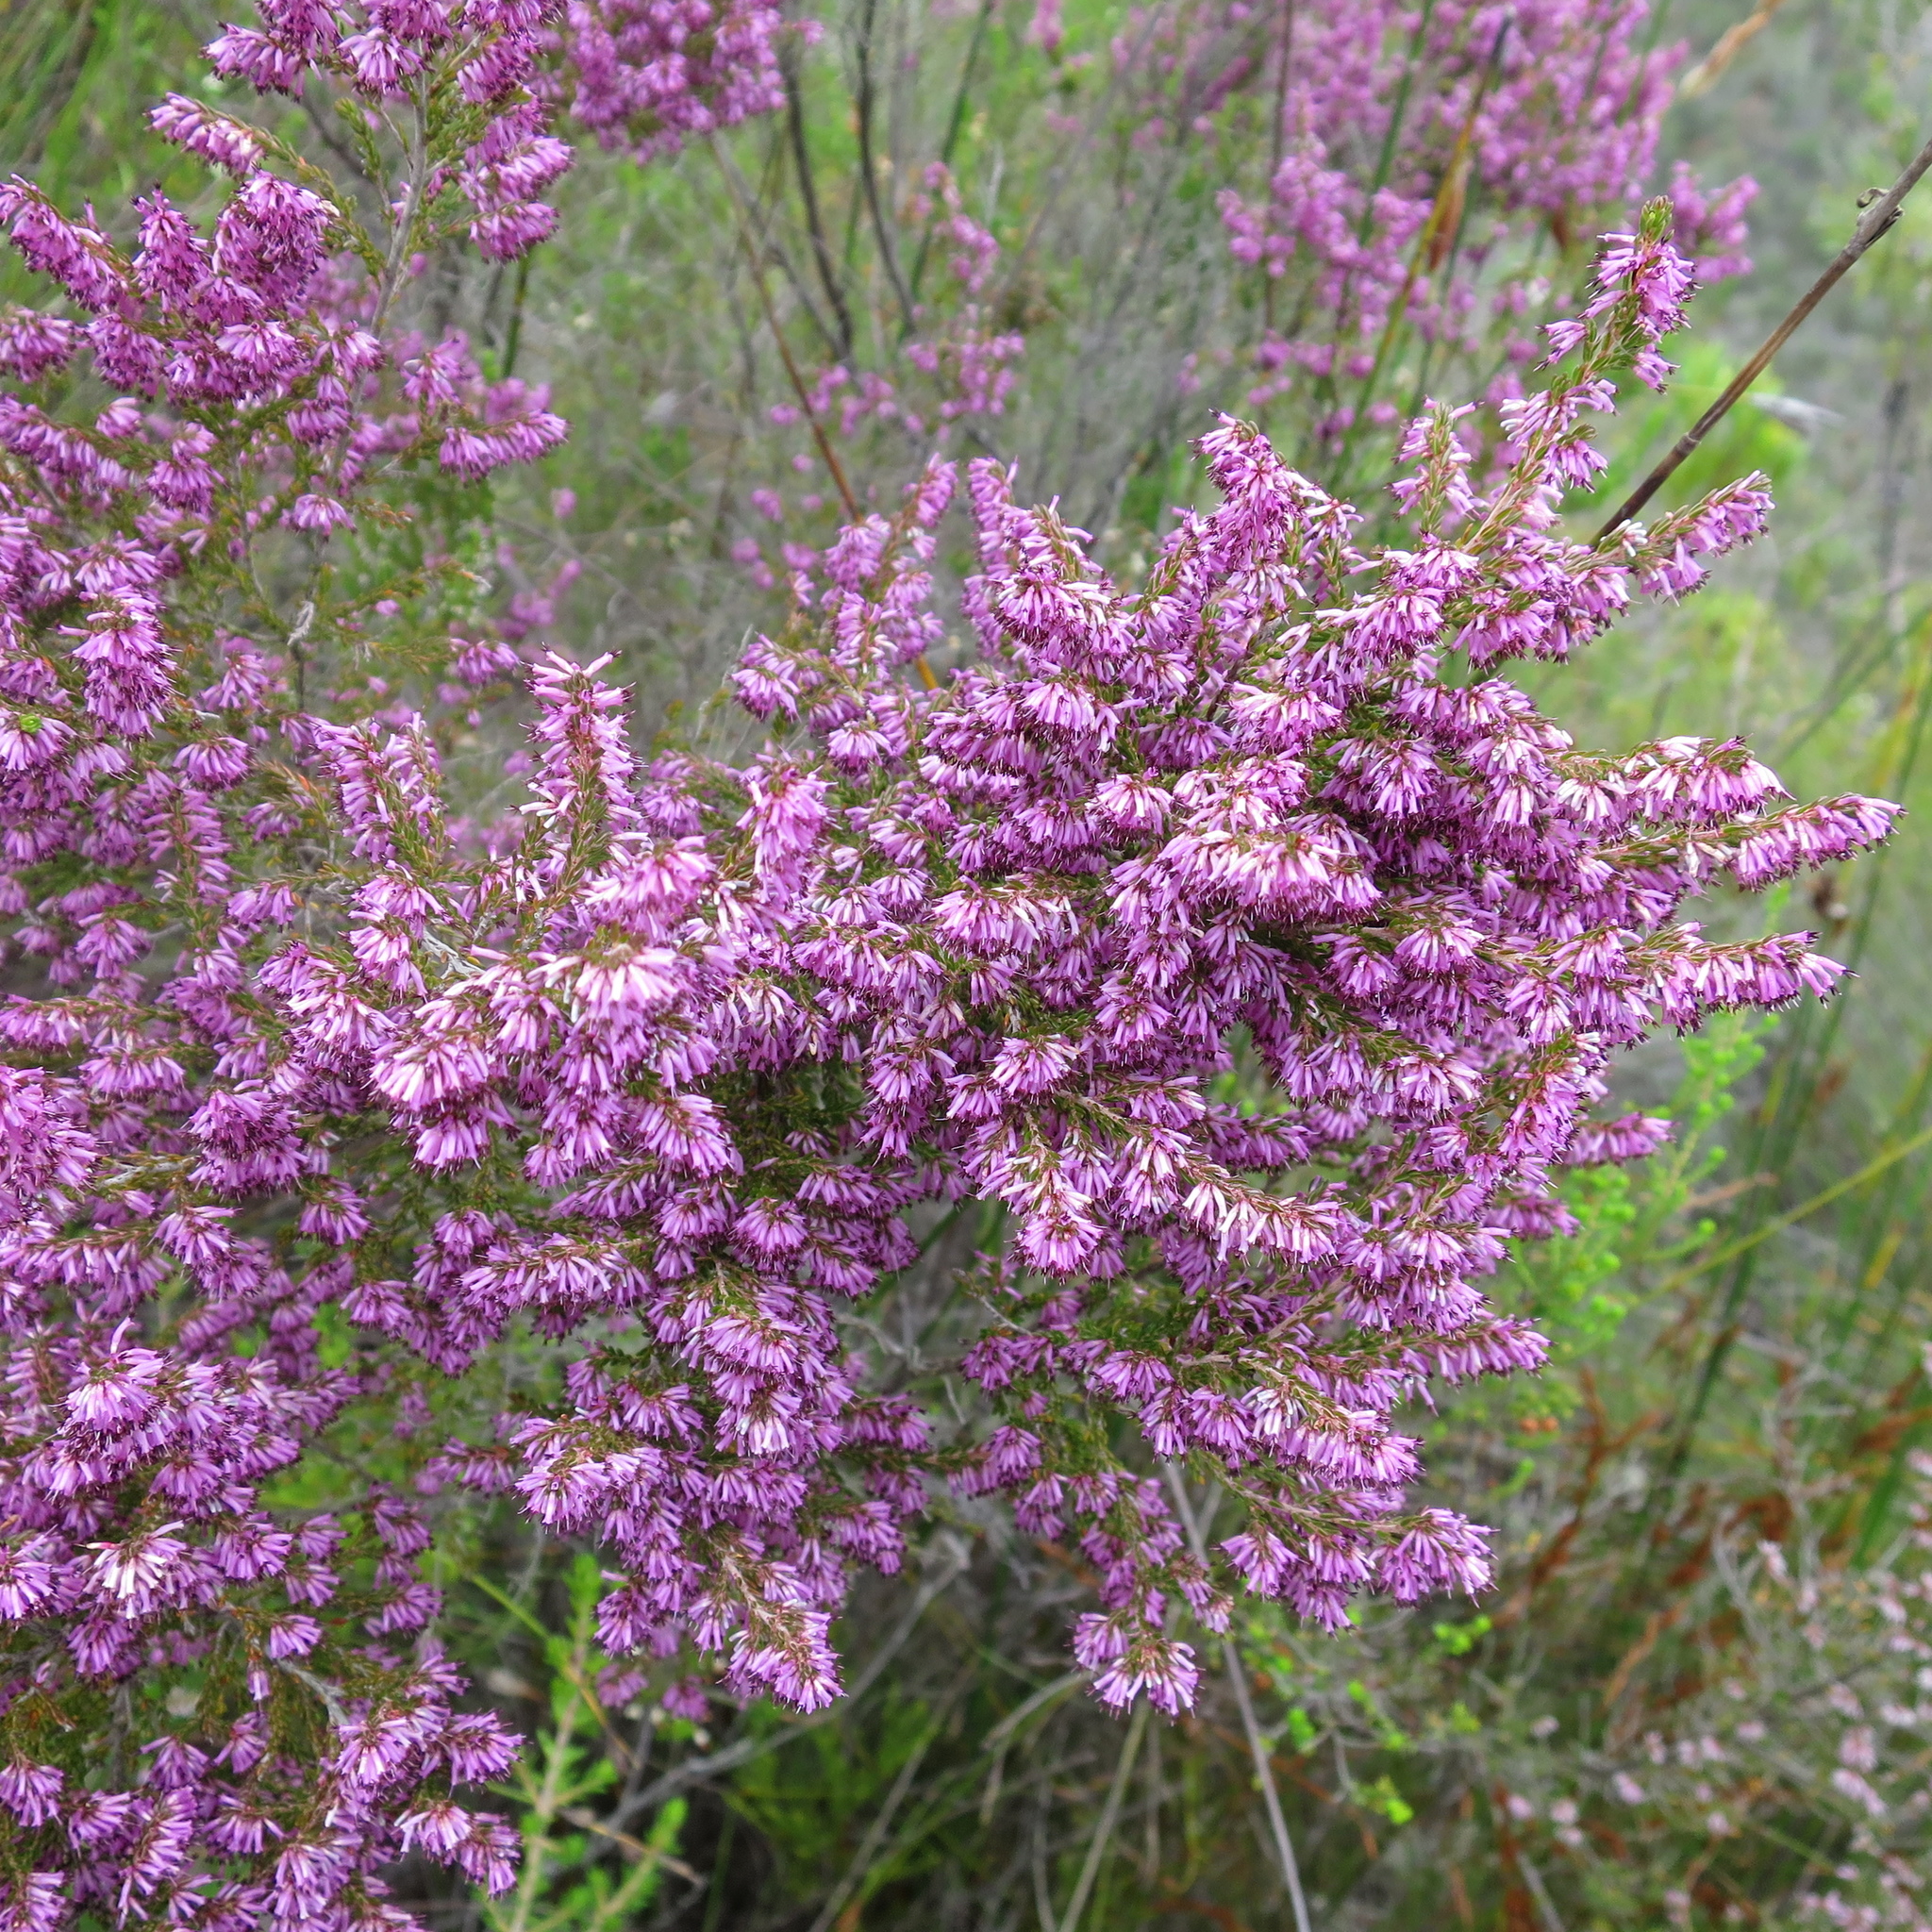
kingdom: Plantae
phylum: Tracheophyta
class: Magnoliopsida
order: Ericales
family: Ericaceae
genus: Erica
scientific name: Erica uberiflora
